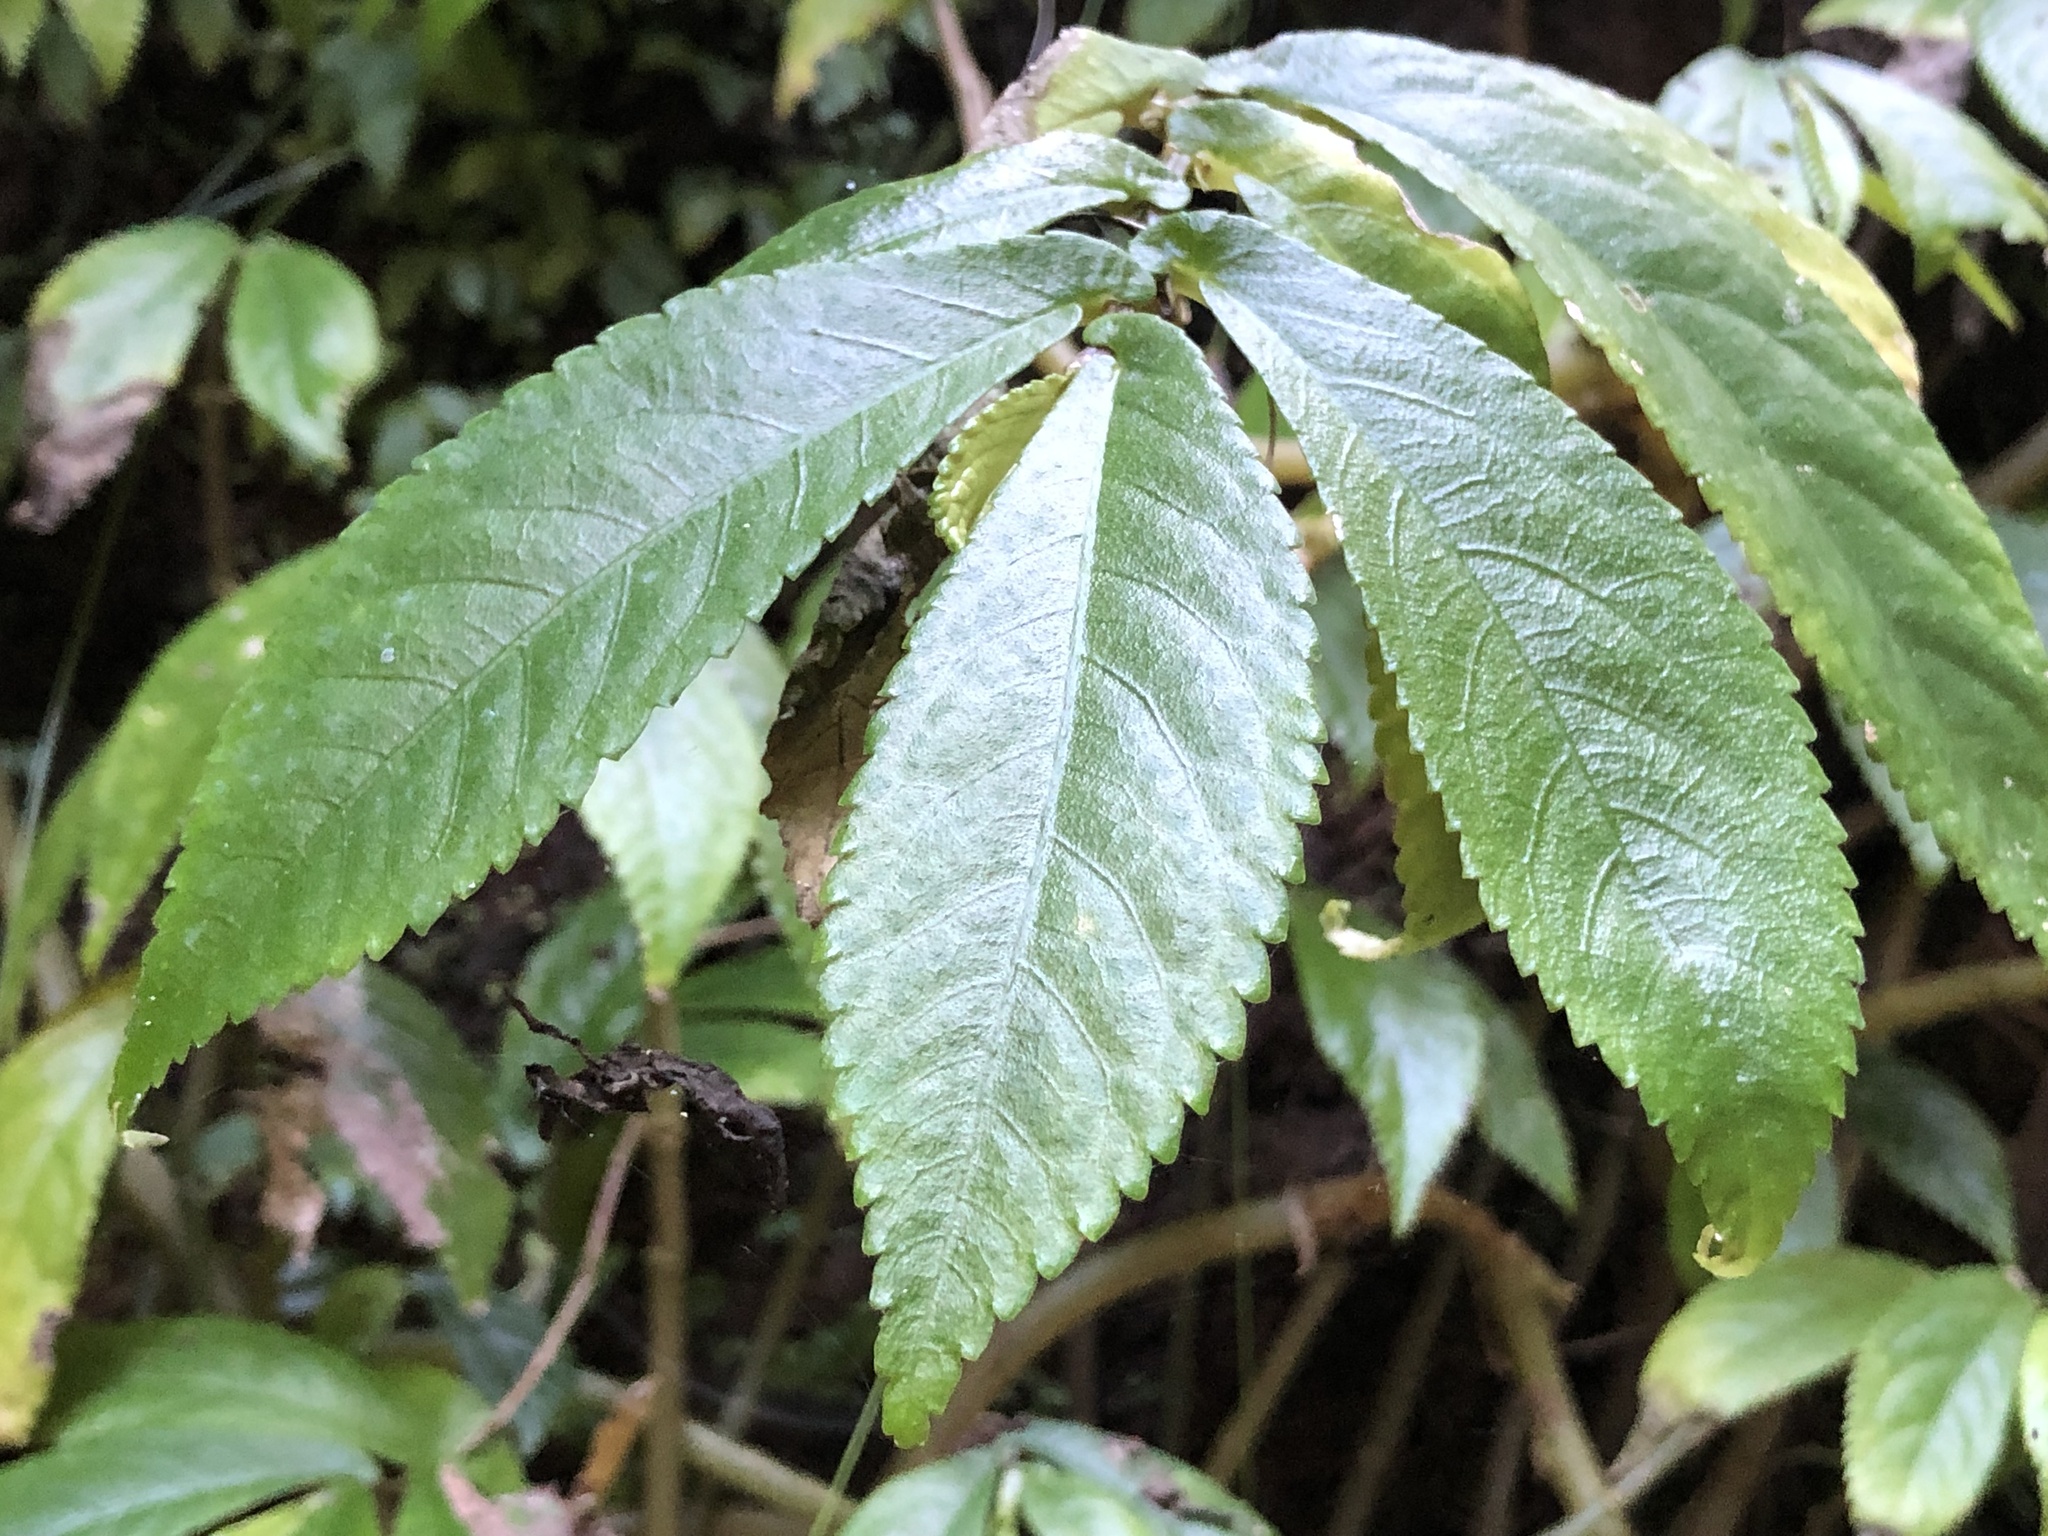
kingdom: Plantae
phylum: Tracheophyta
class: Magnoliopsida
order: Rosales
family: Urticaceae
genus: Elatostema
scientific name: Elatostema reticulatum
